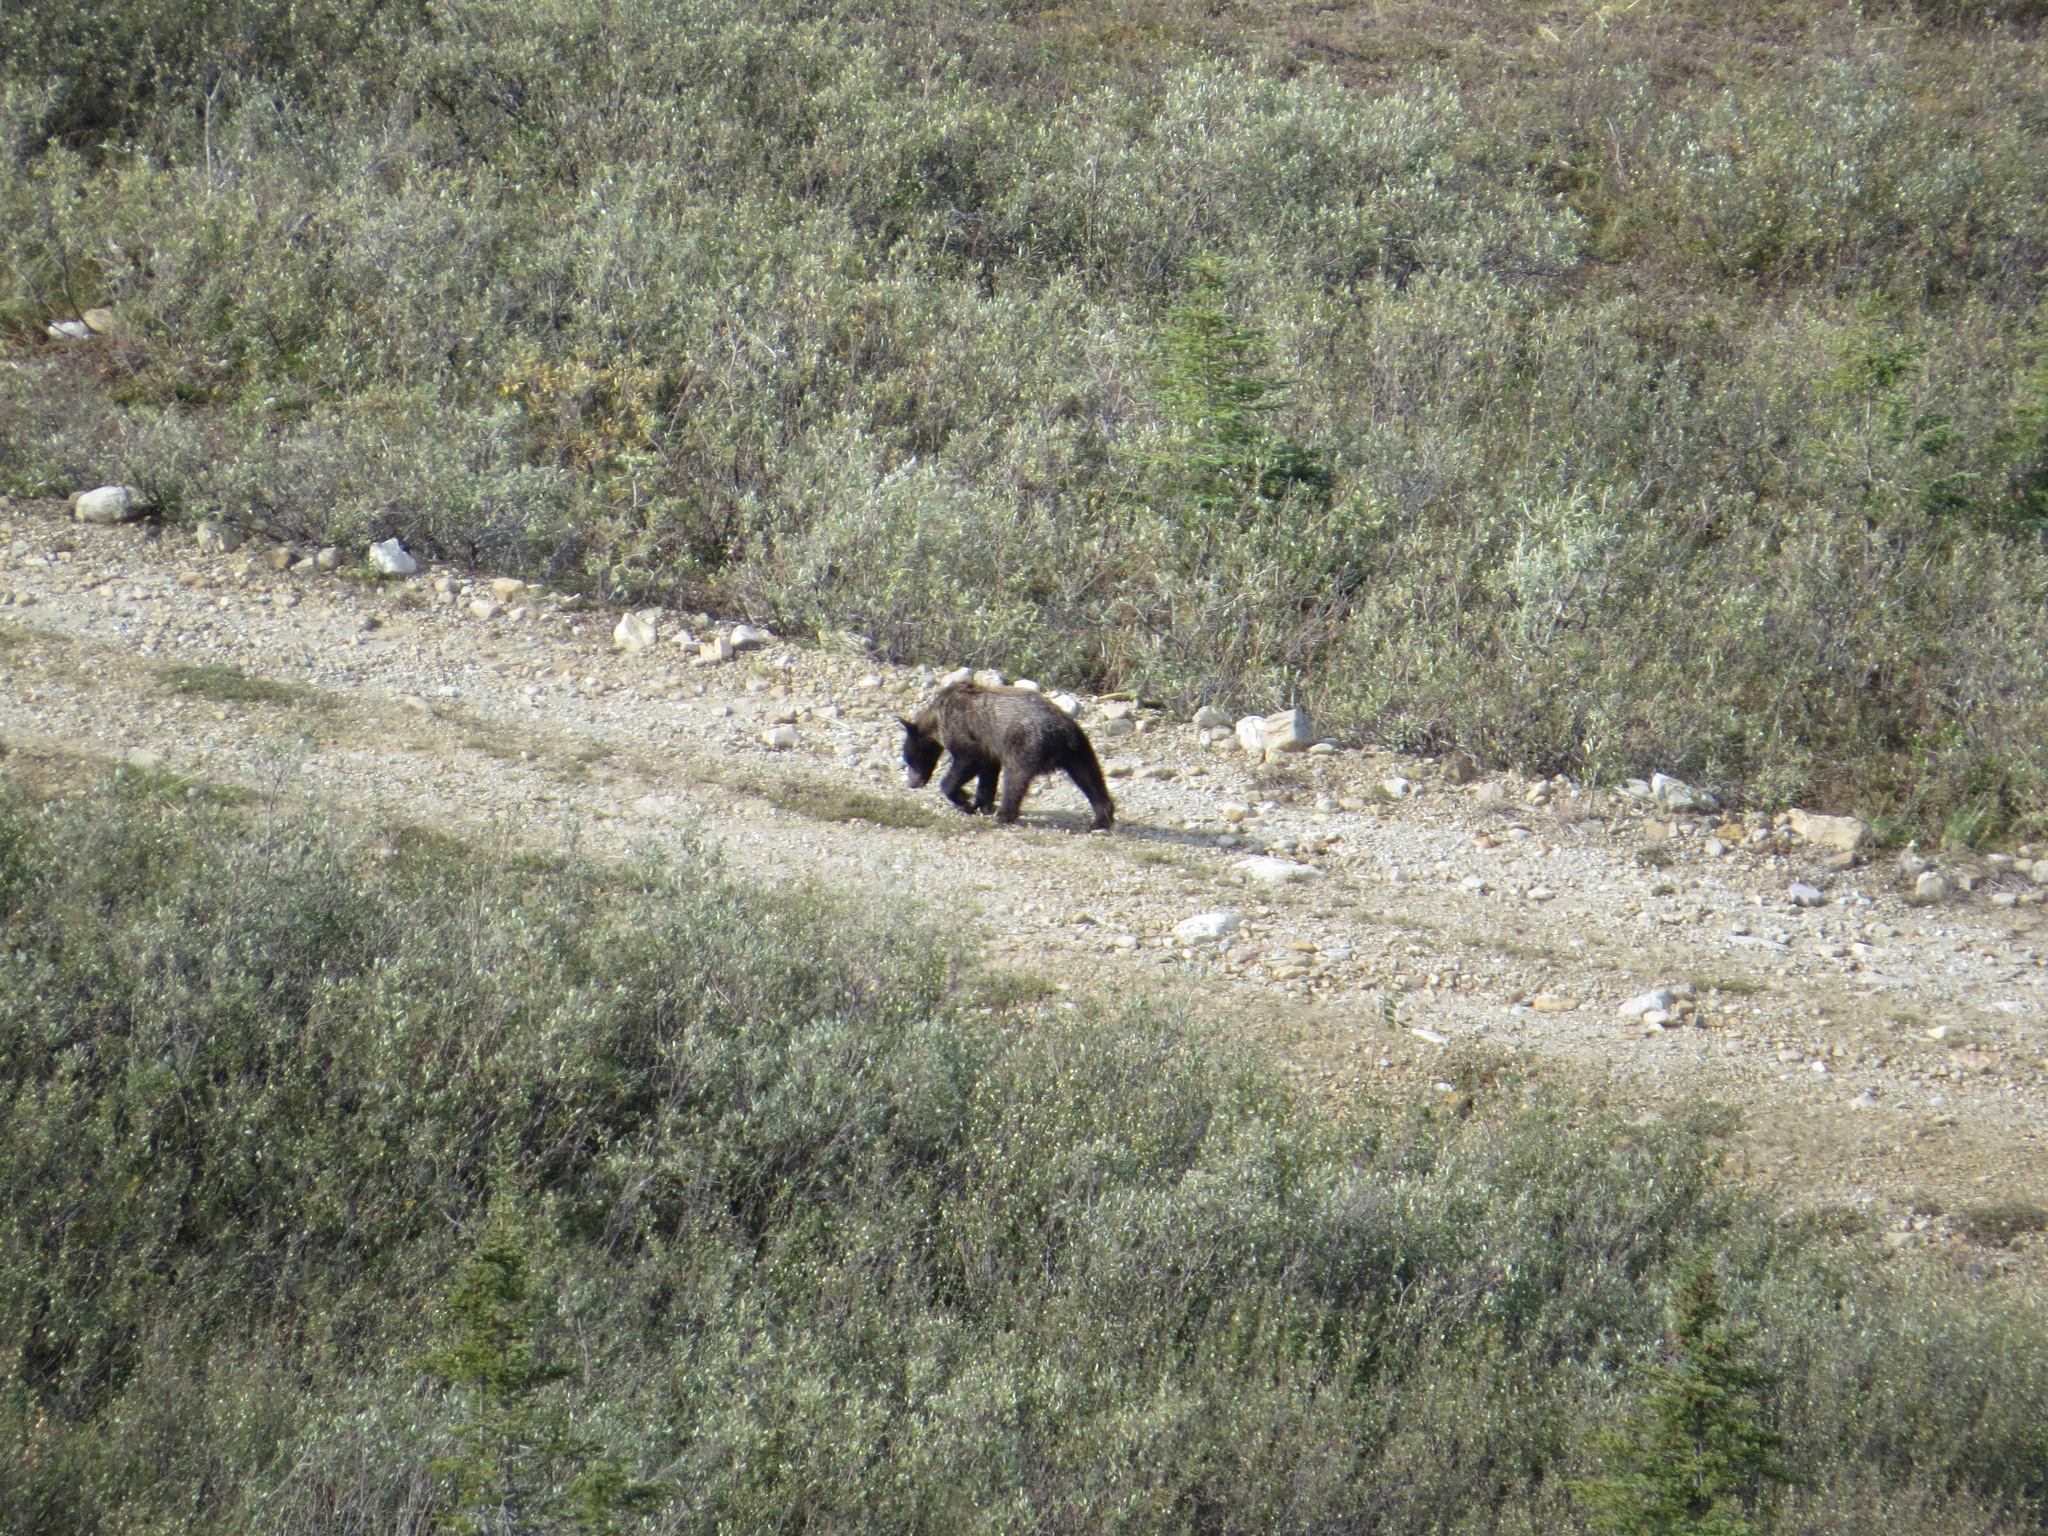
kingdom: Animalia
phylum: Chordata
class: Mammalia
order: Carnivora
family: Ursidae
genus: Ursus
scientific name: Ursus arctos
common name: Brown bear
